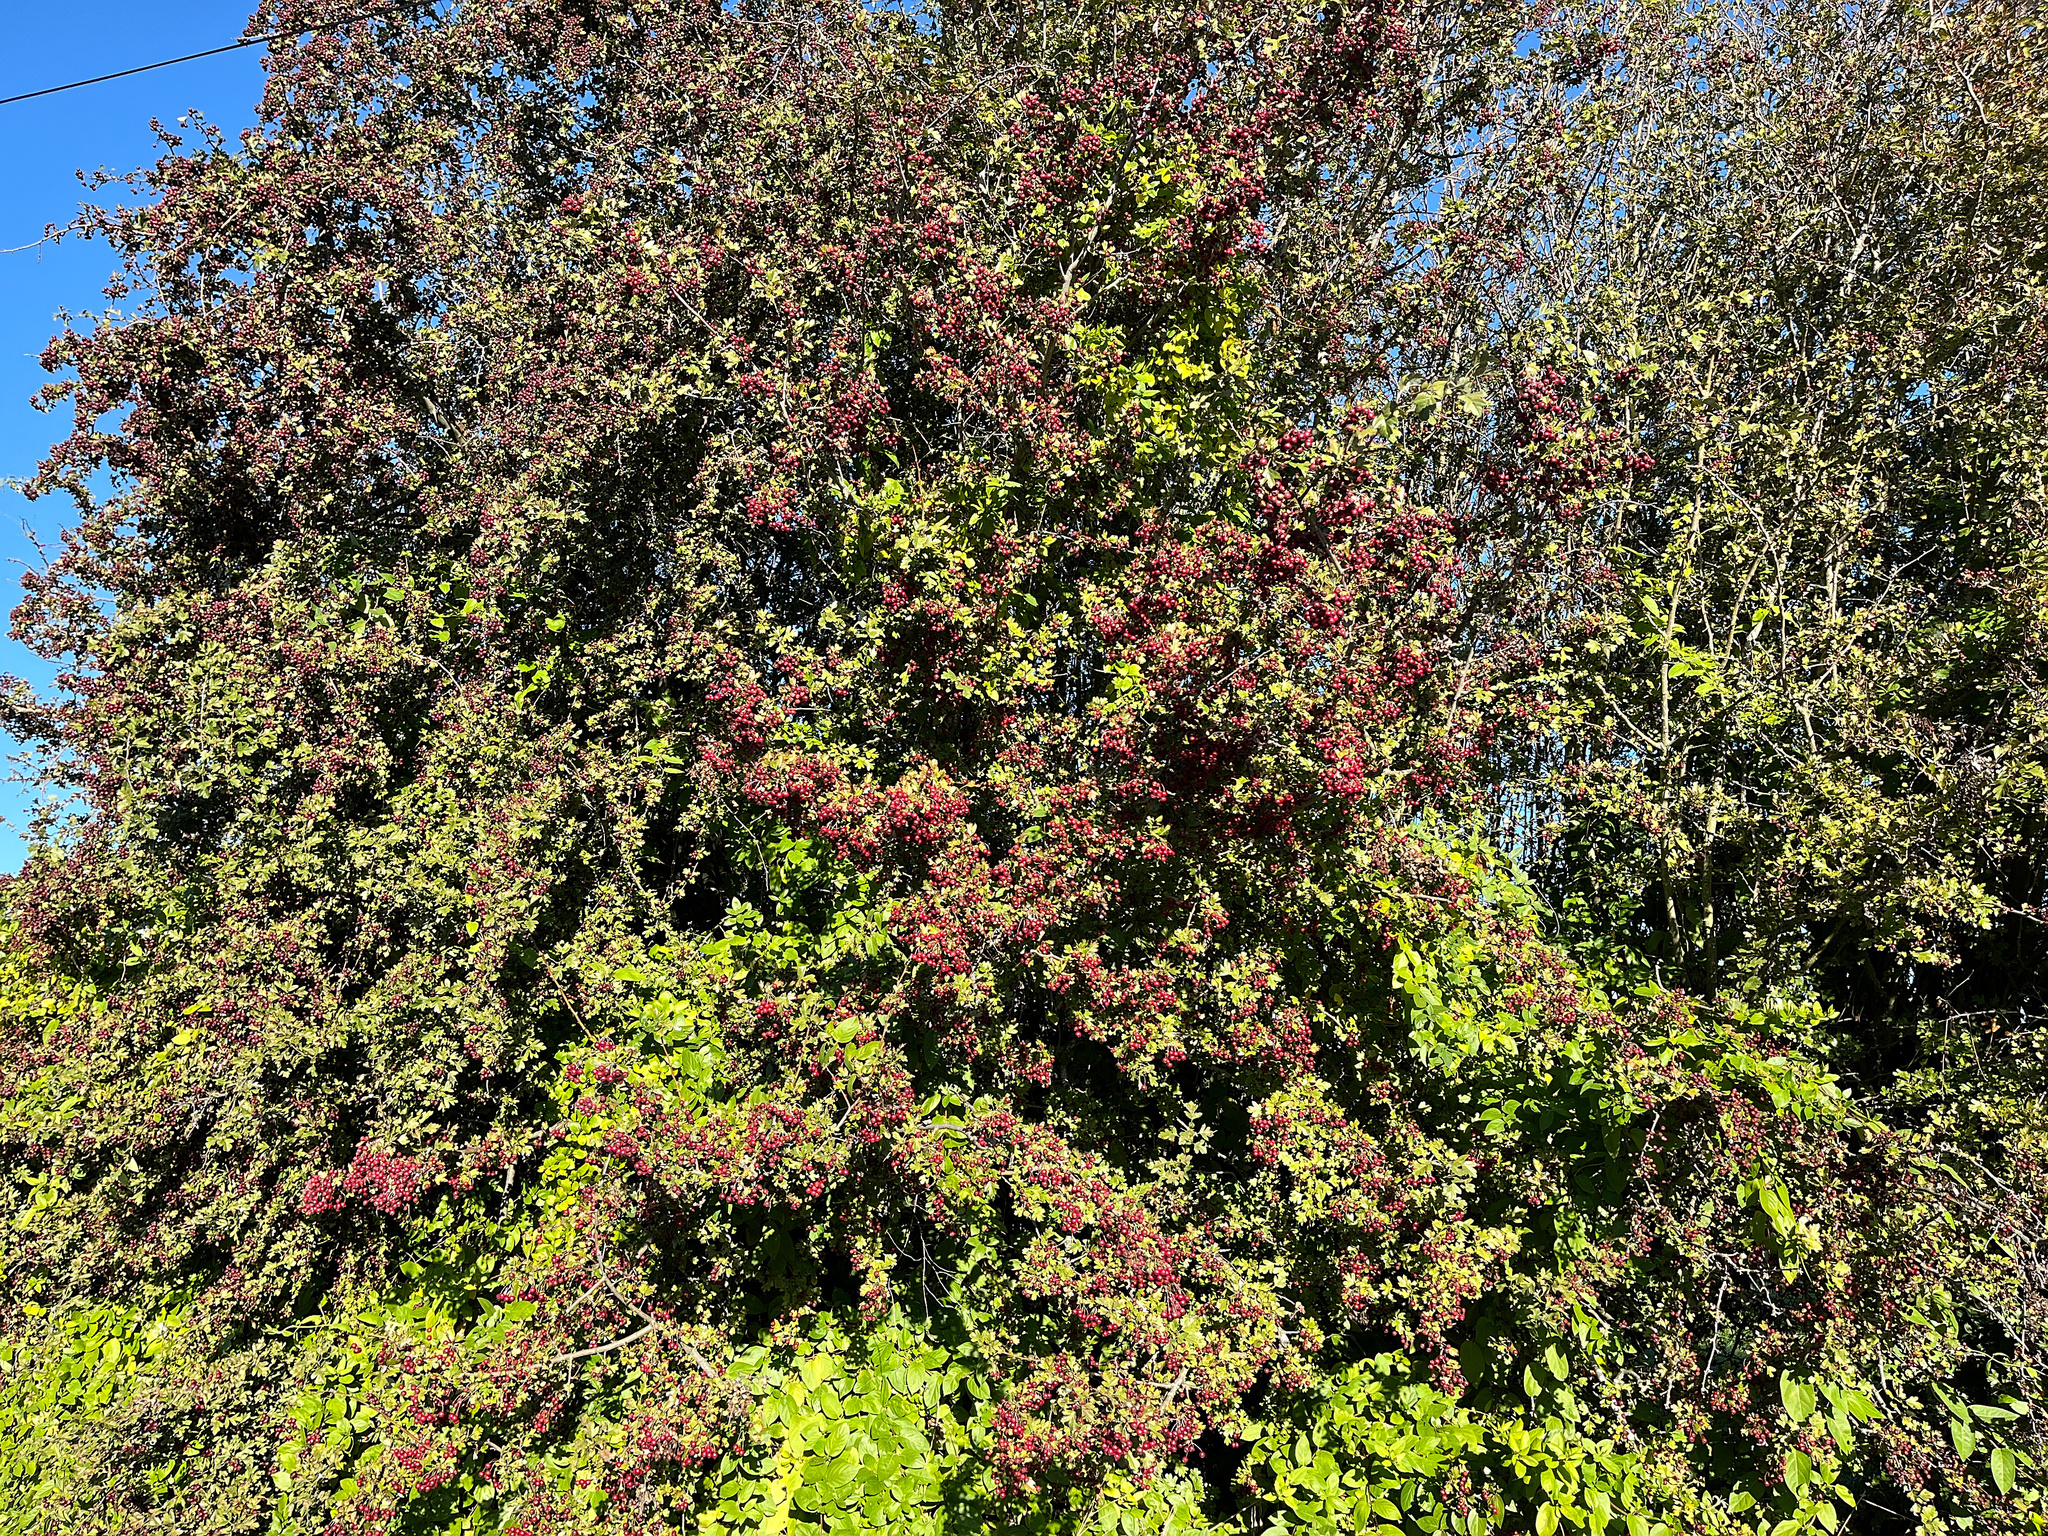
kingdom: Plantae
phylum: Tracheophyta
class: Magnoliopsida
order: Rosales
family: Rosaceae
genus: Crataegus
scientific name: Crataegus monogyna
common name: Hawthorn
